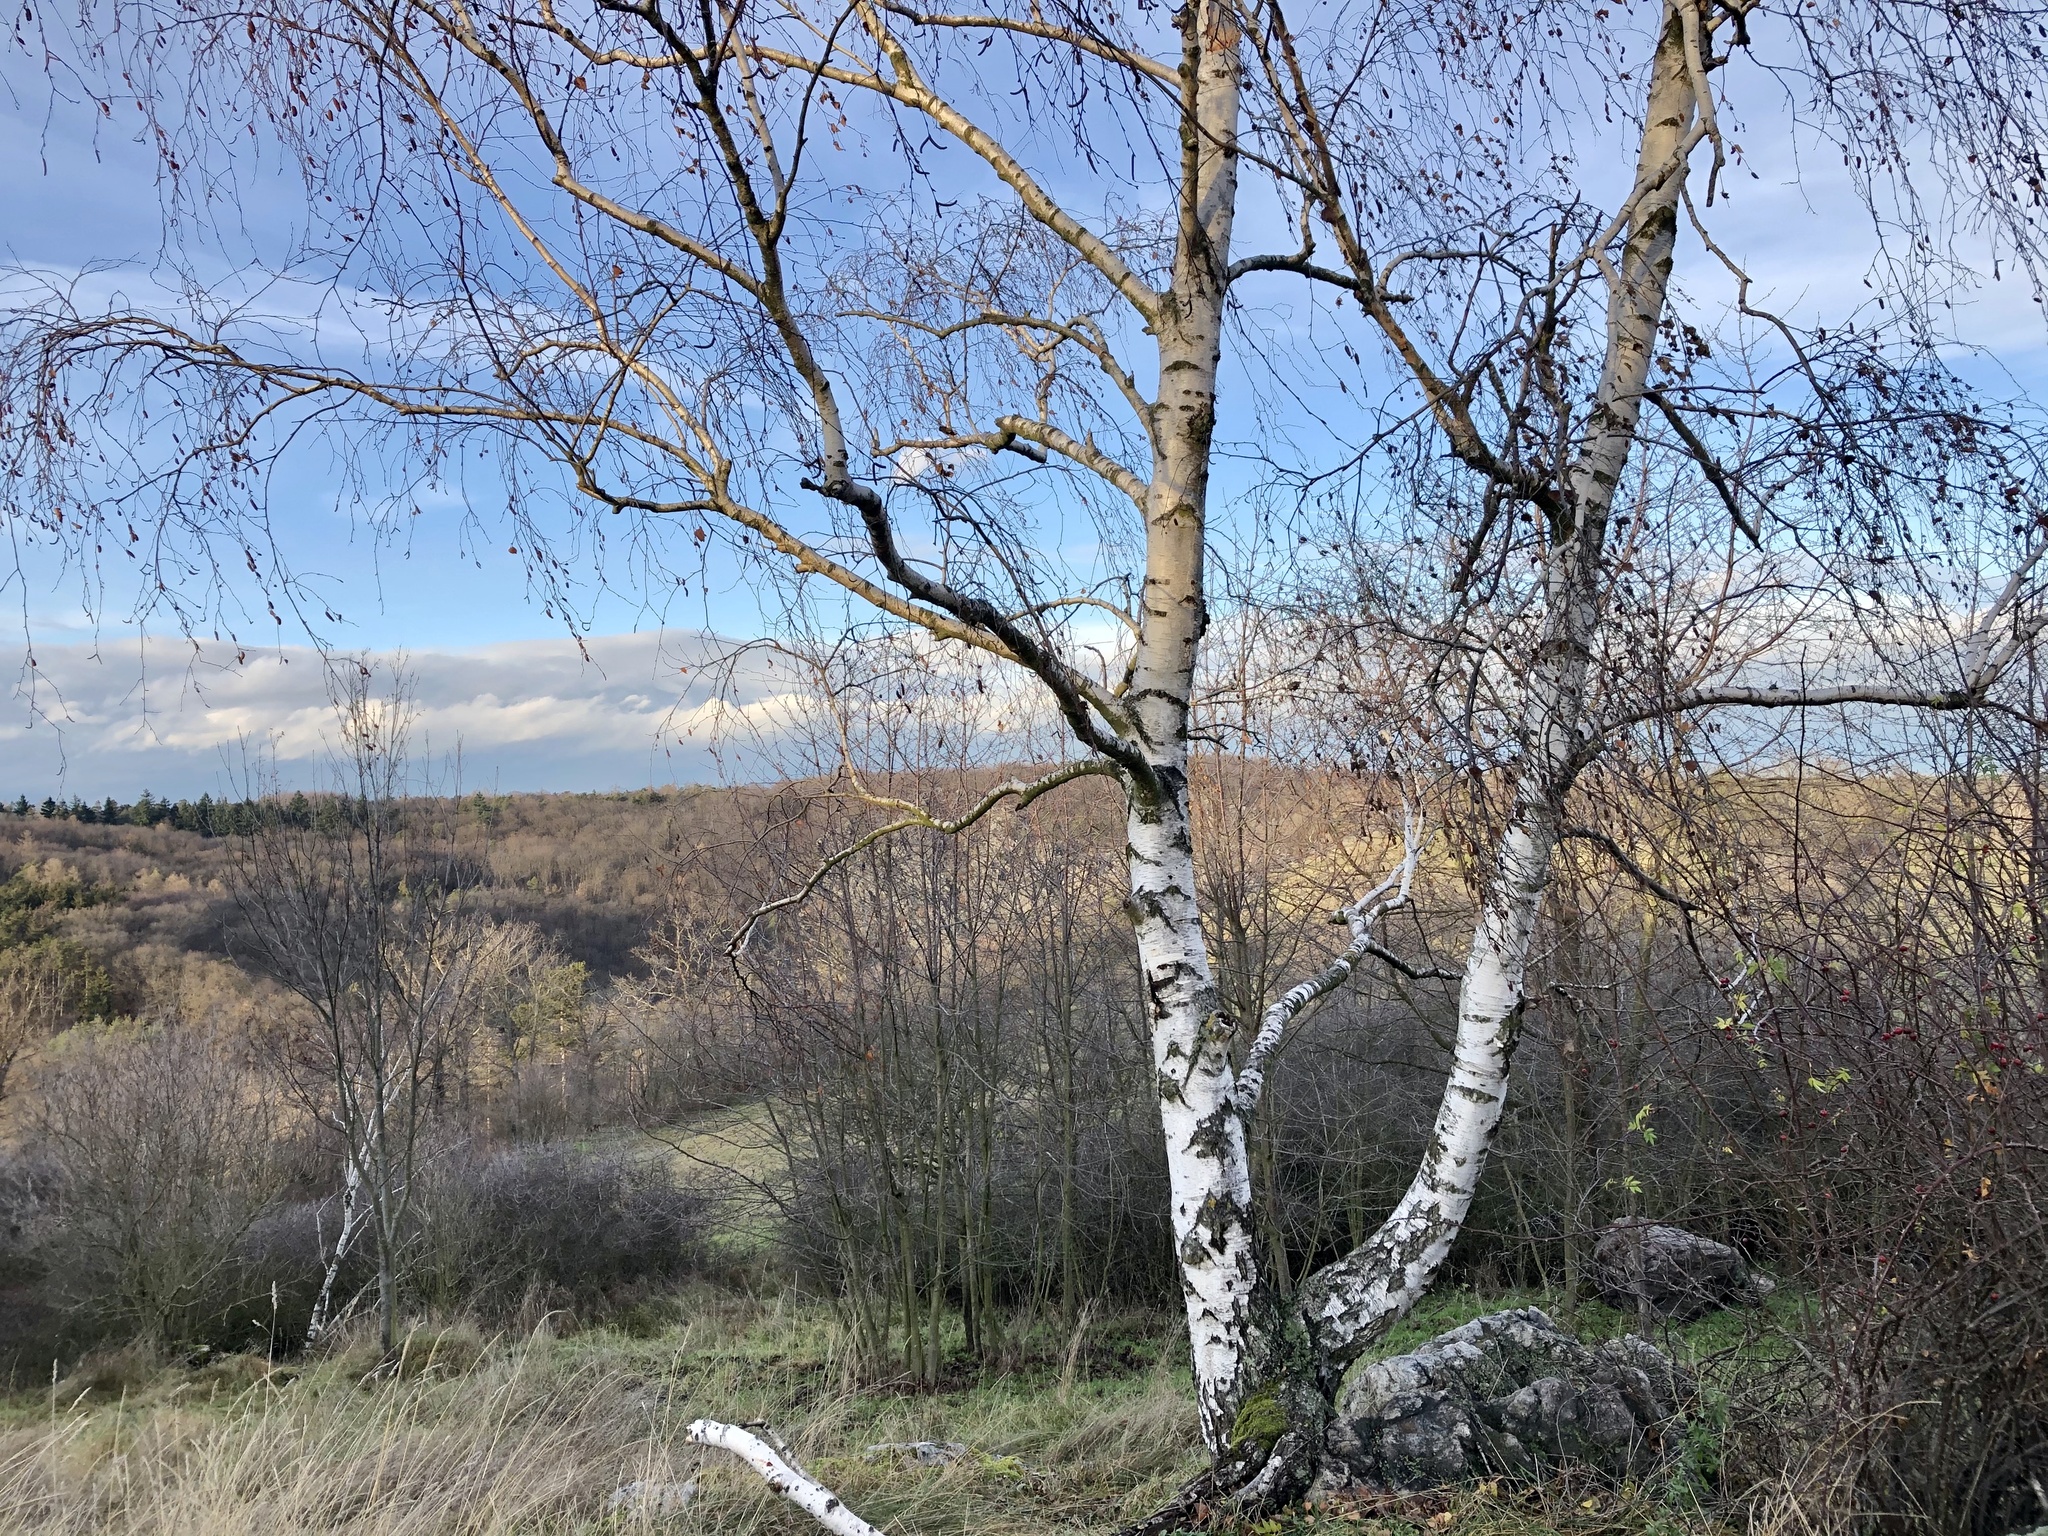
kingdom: Plantae
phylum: Tracheophyta
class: Magnoliopsida
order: Fagales
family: Betulaceae
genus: Betula
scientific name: Betula pendula
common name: Silver birch
